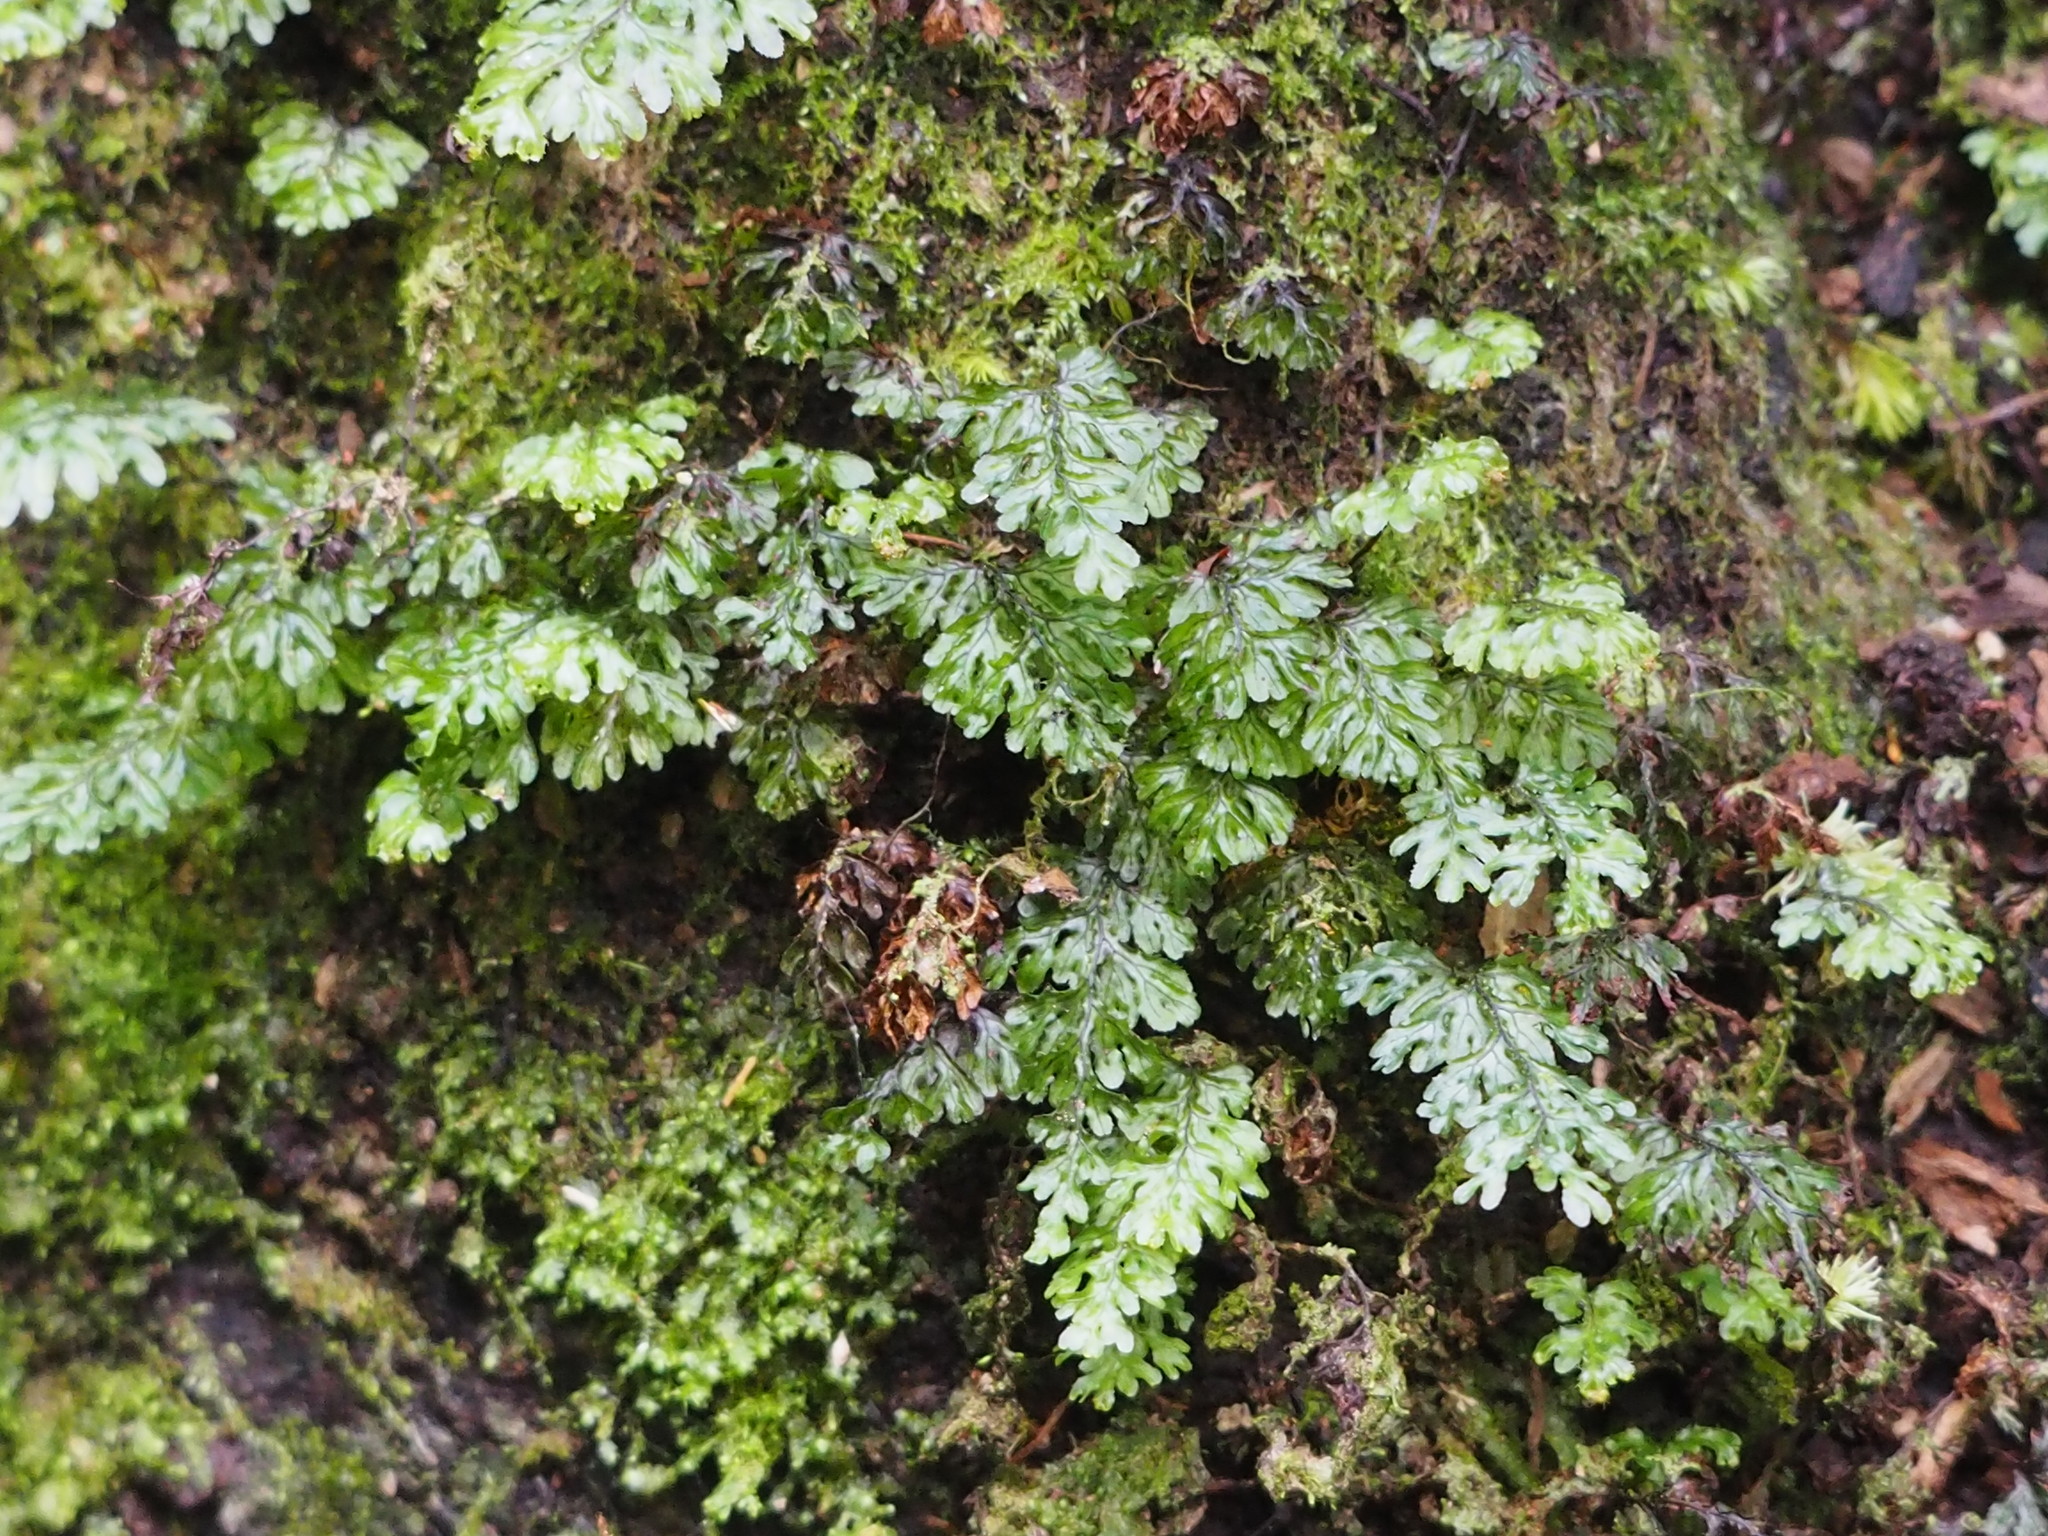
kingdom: Plantae
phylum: Tracheophyta
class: Polypodiopsida
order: Hymenophyllales
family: Hymenophyllaceae
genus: Hymenophyllum
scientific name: Hymenophyllum okadae
